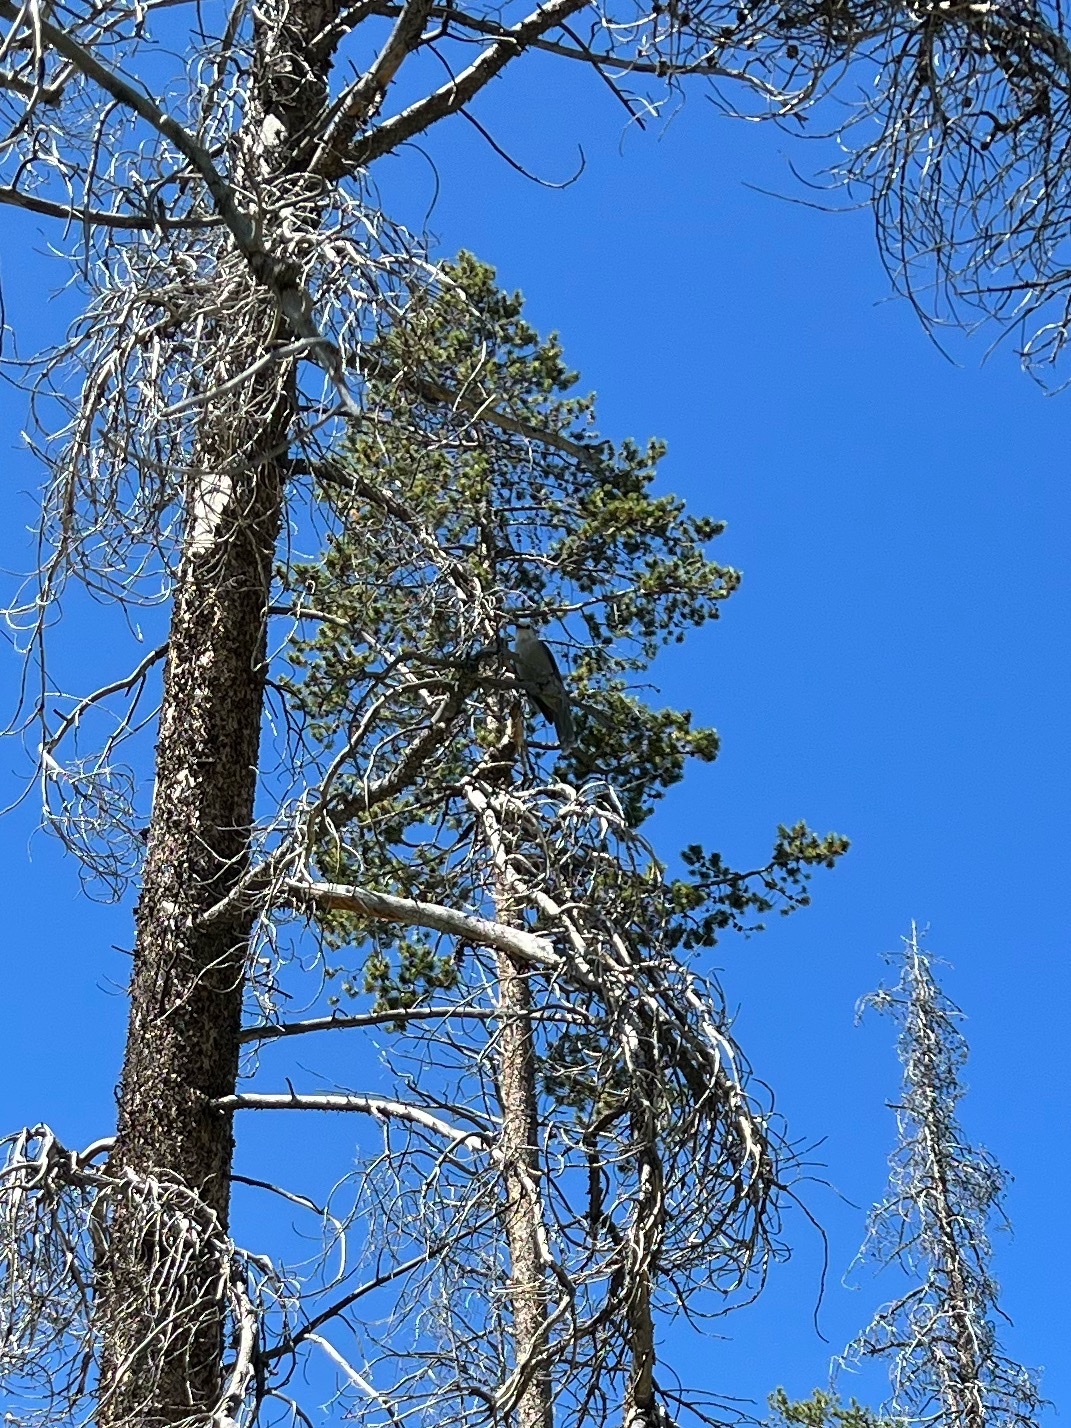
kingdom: Animalia
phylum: Chordata
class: Aves
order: Passeriformes
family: Corvidae
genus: Perisoreus
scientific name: Perisoreus canadensis
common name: Gray jay
